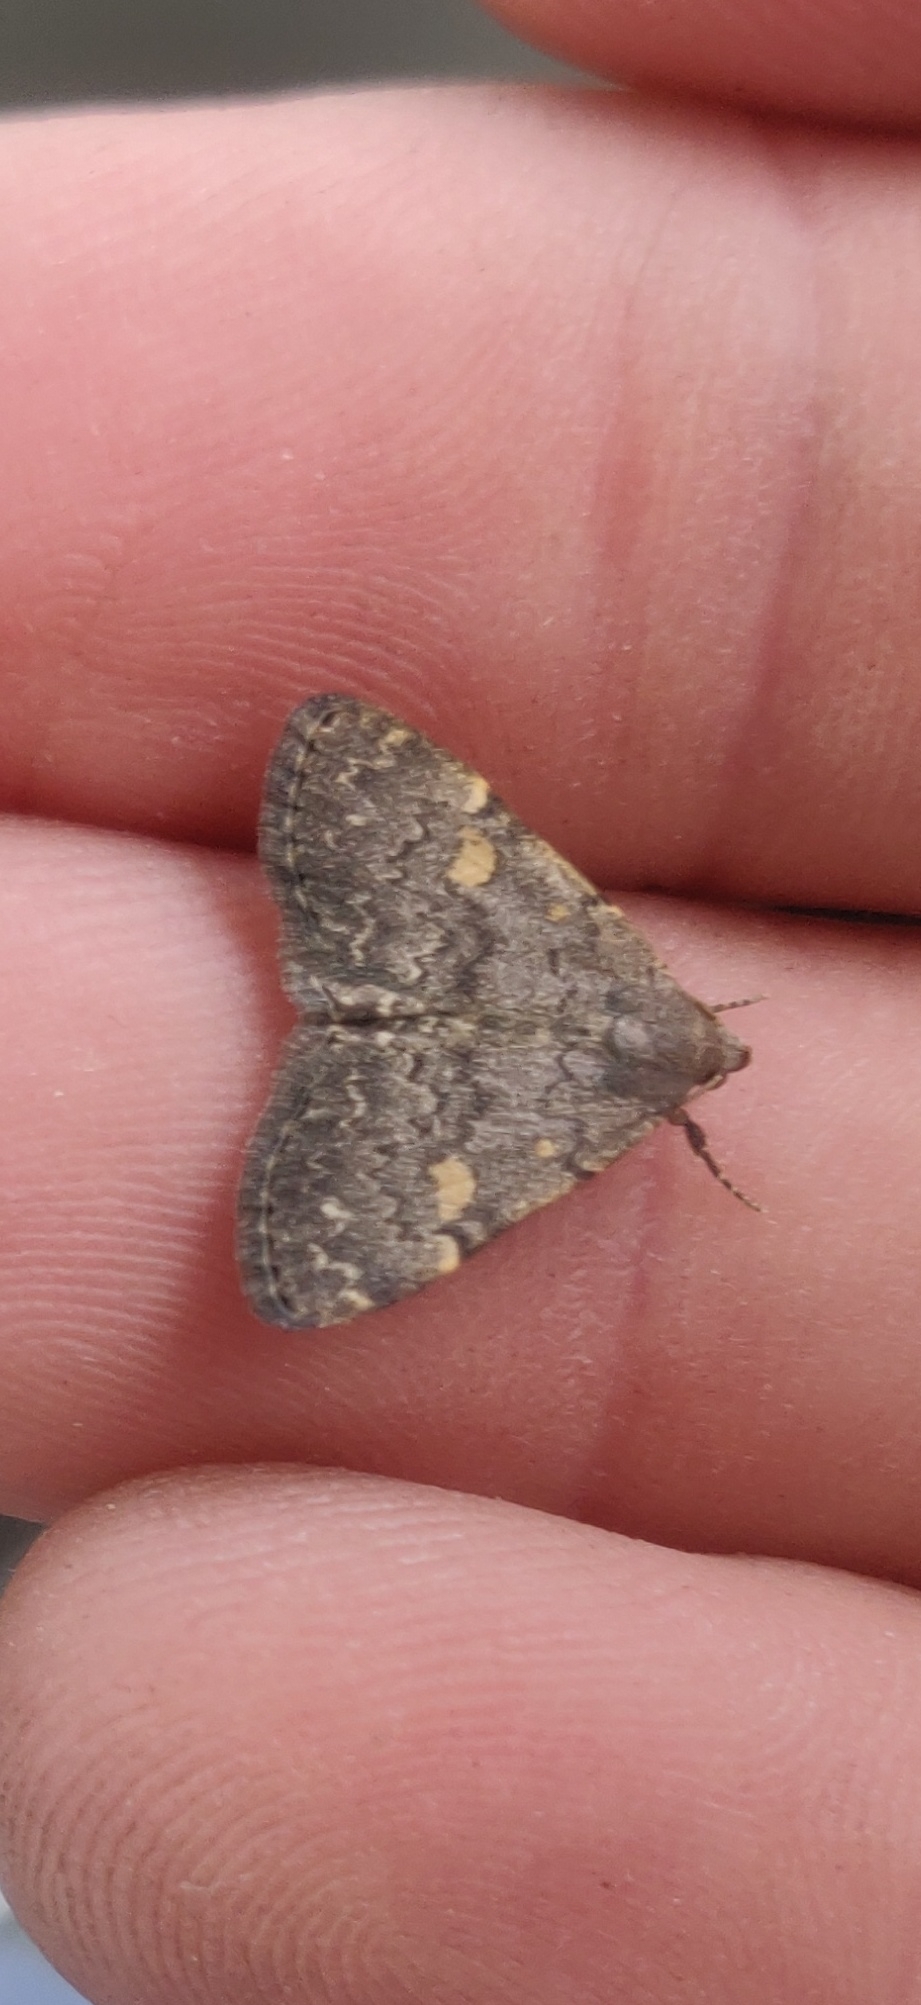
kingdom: Animalia
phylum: Arthropoda
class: Insecta
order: Lepidoptera
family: Erebidae
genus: Idia
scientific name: Idia aemula
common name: Common idia moth
